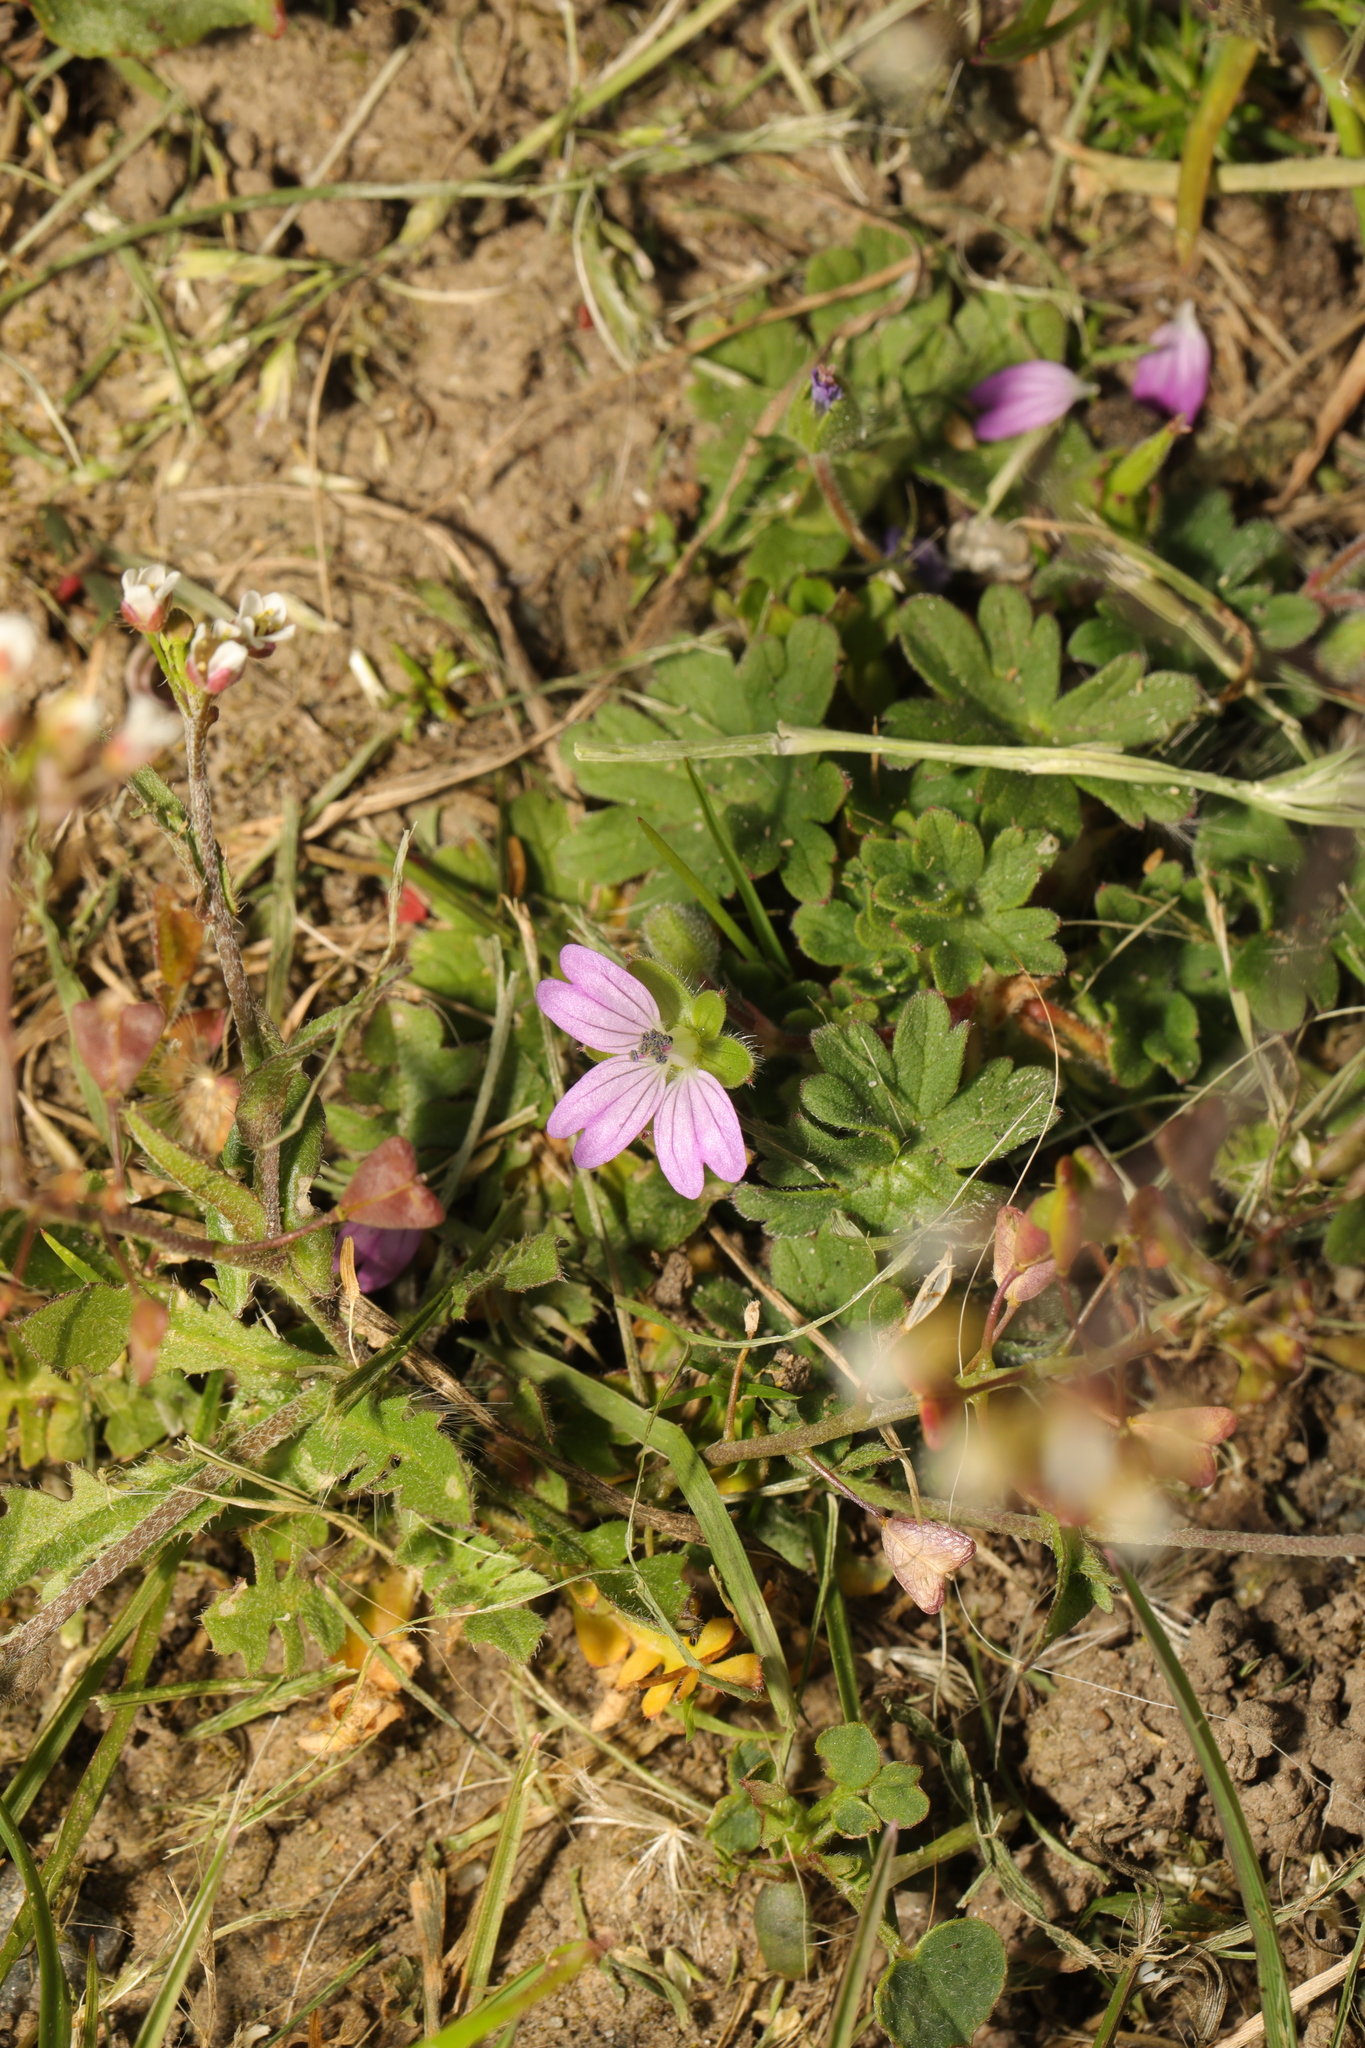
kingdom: Plantae
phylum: Tracheophyta
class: Magnoliopsida
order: Geraniales
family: Geraniaceae
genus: Geranium
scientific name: Geranium molle
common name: Dove's-foot crane's-bill
